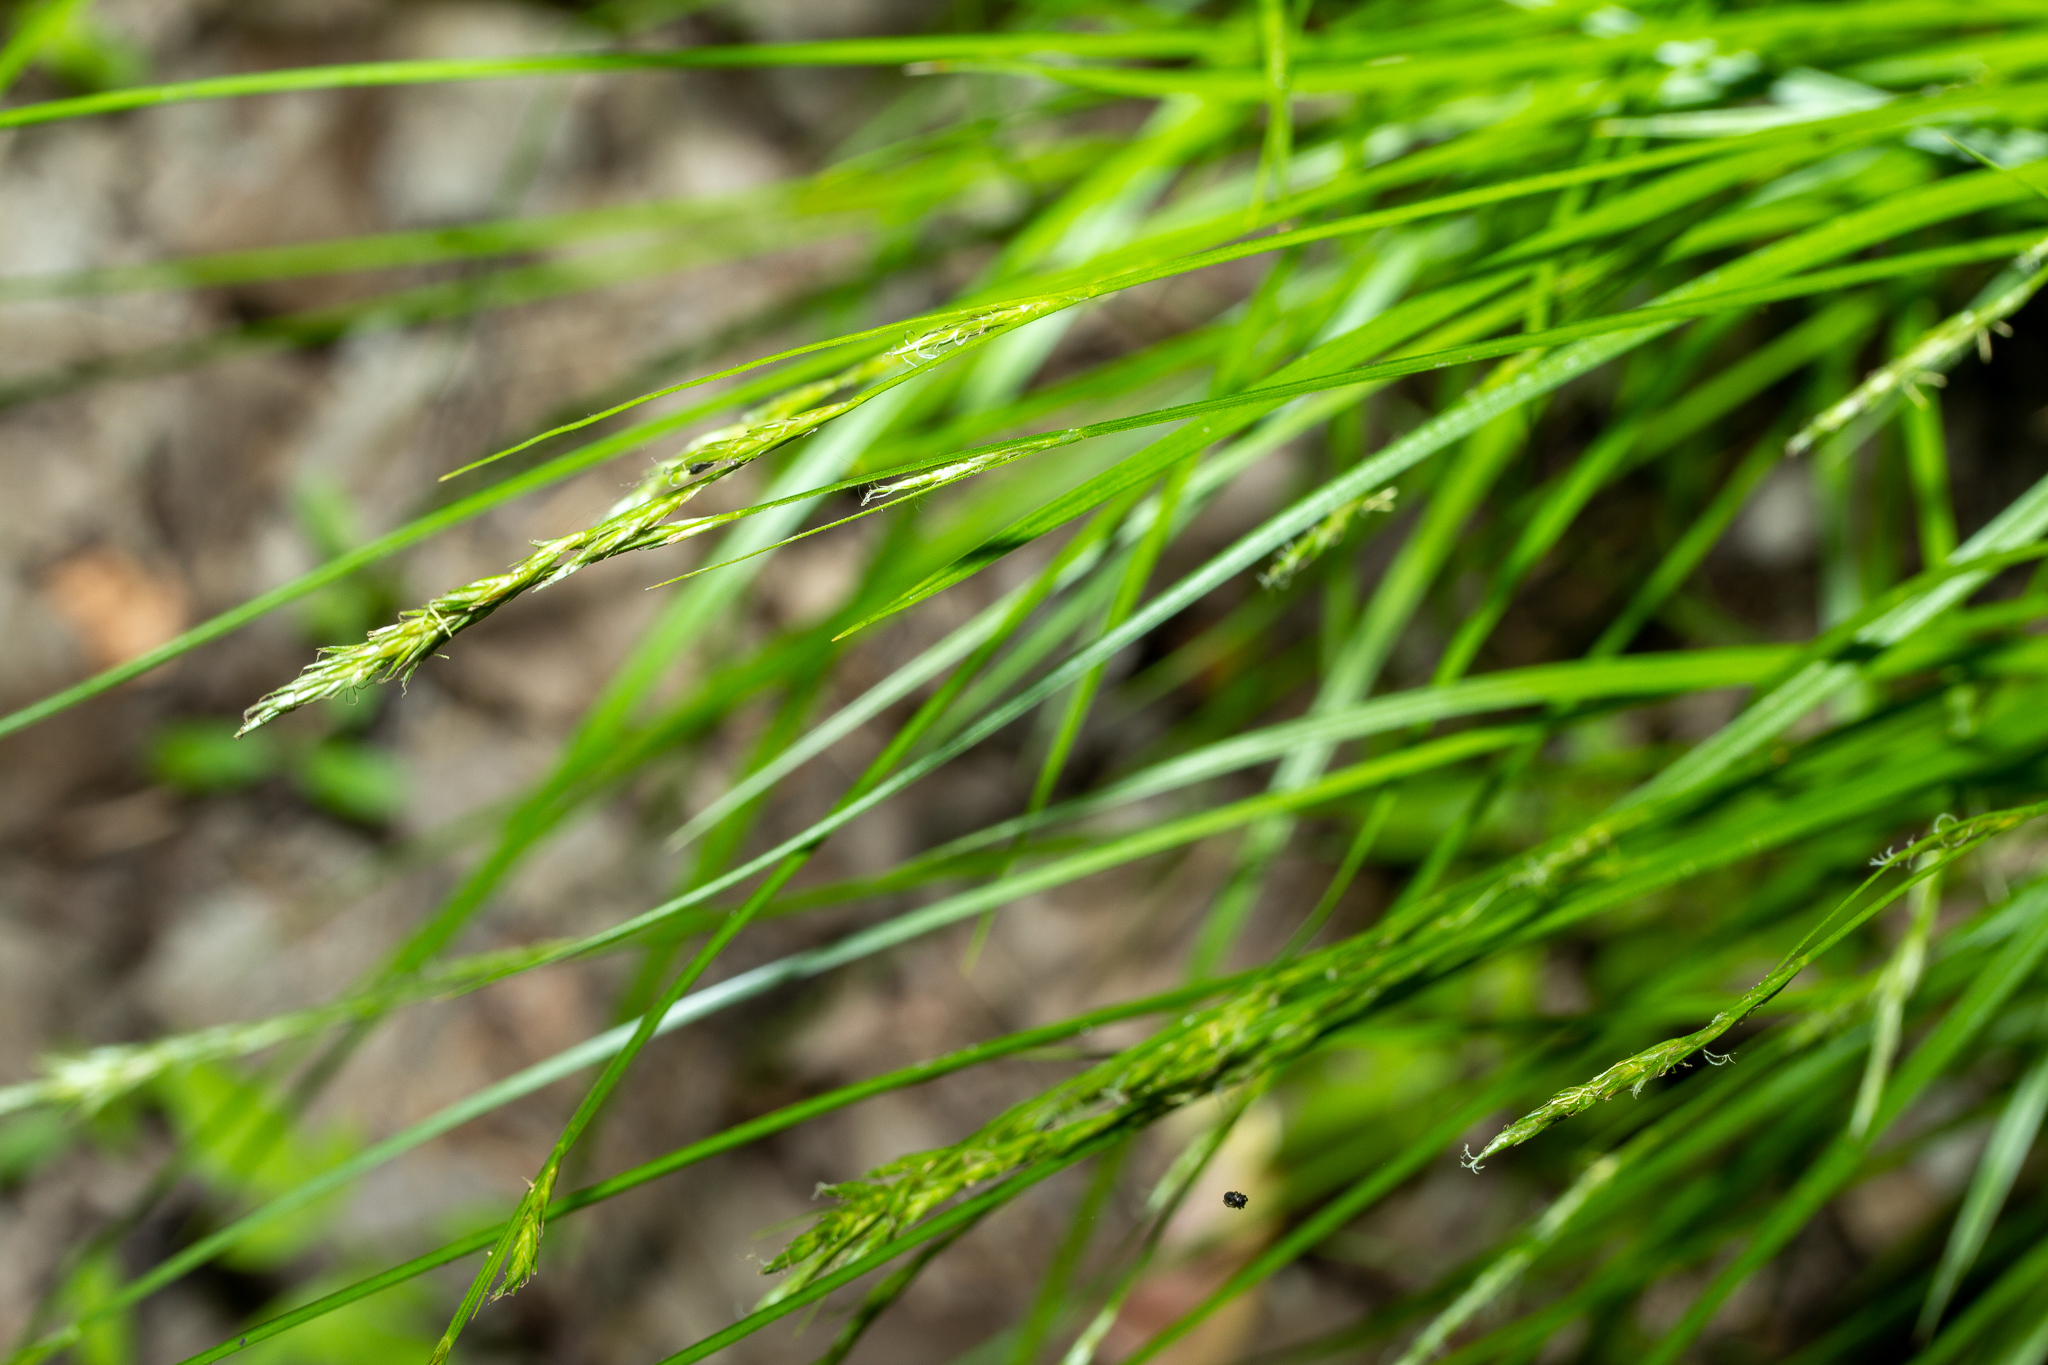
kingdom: Plantae
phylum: Tracheophyta
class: Liliopsida
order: Poales
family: Cyperaceae
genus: Carex
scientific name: Carex bromoides
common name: Brome hummock sedge
